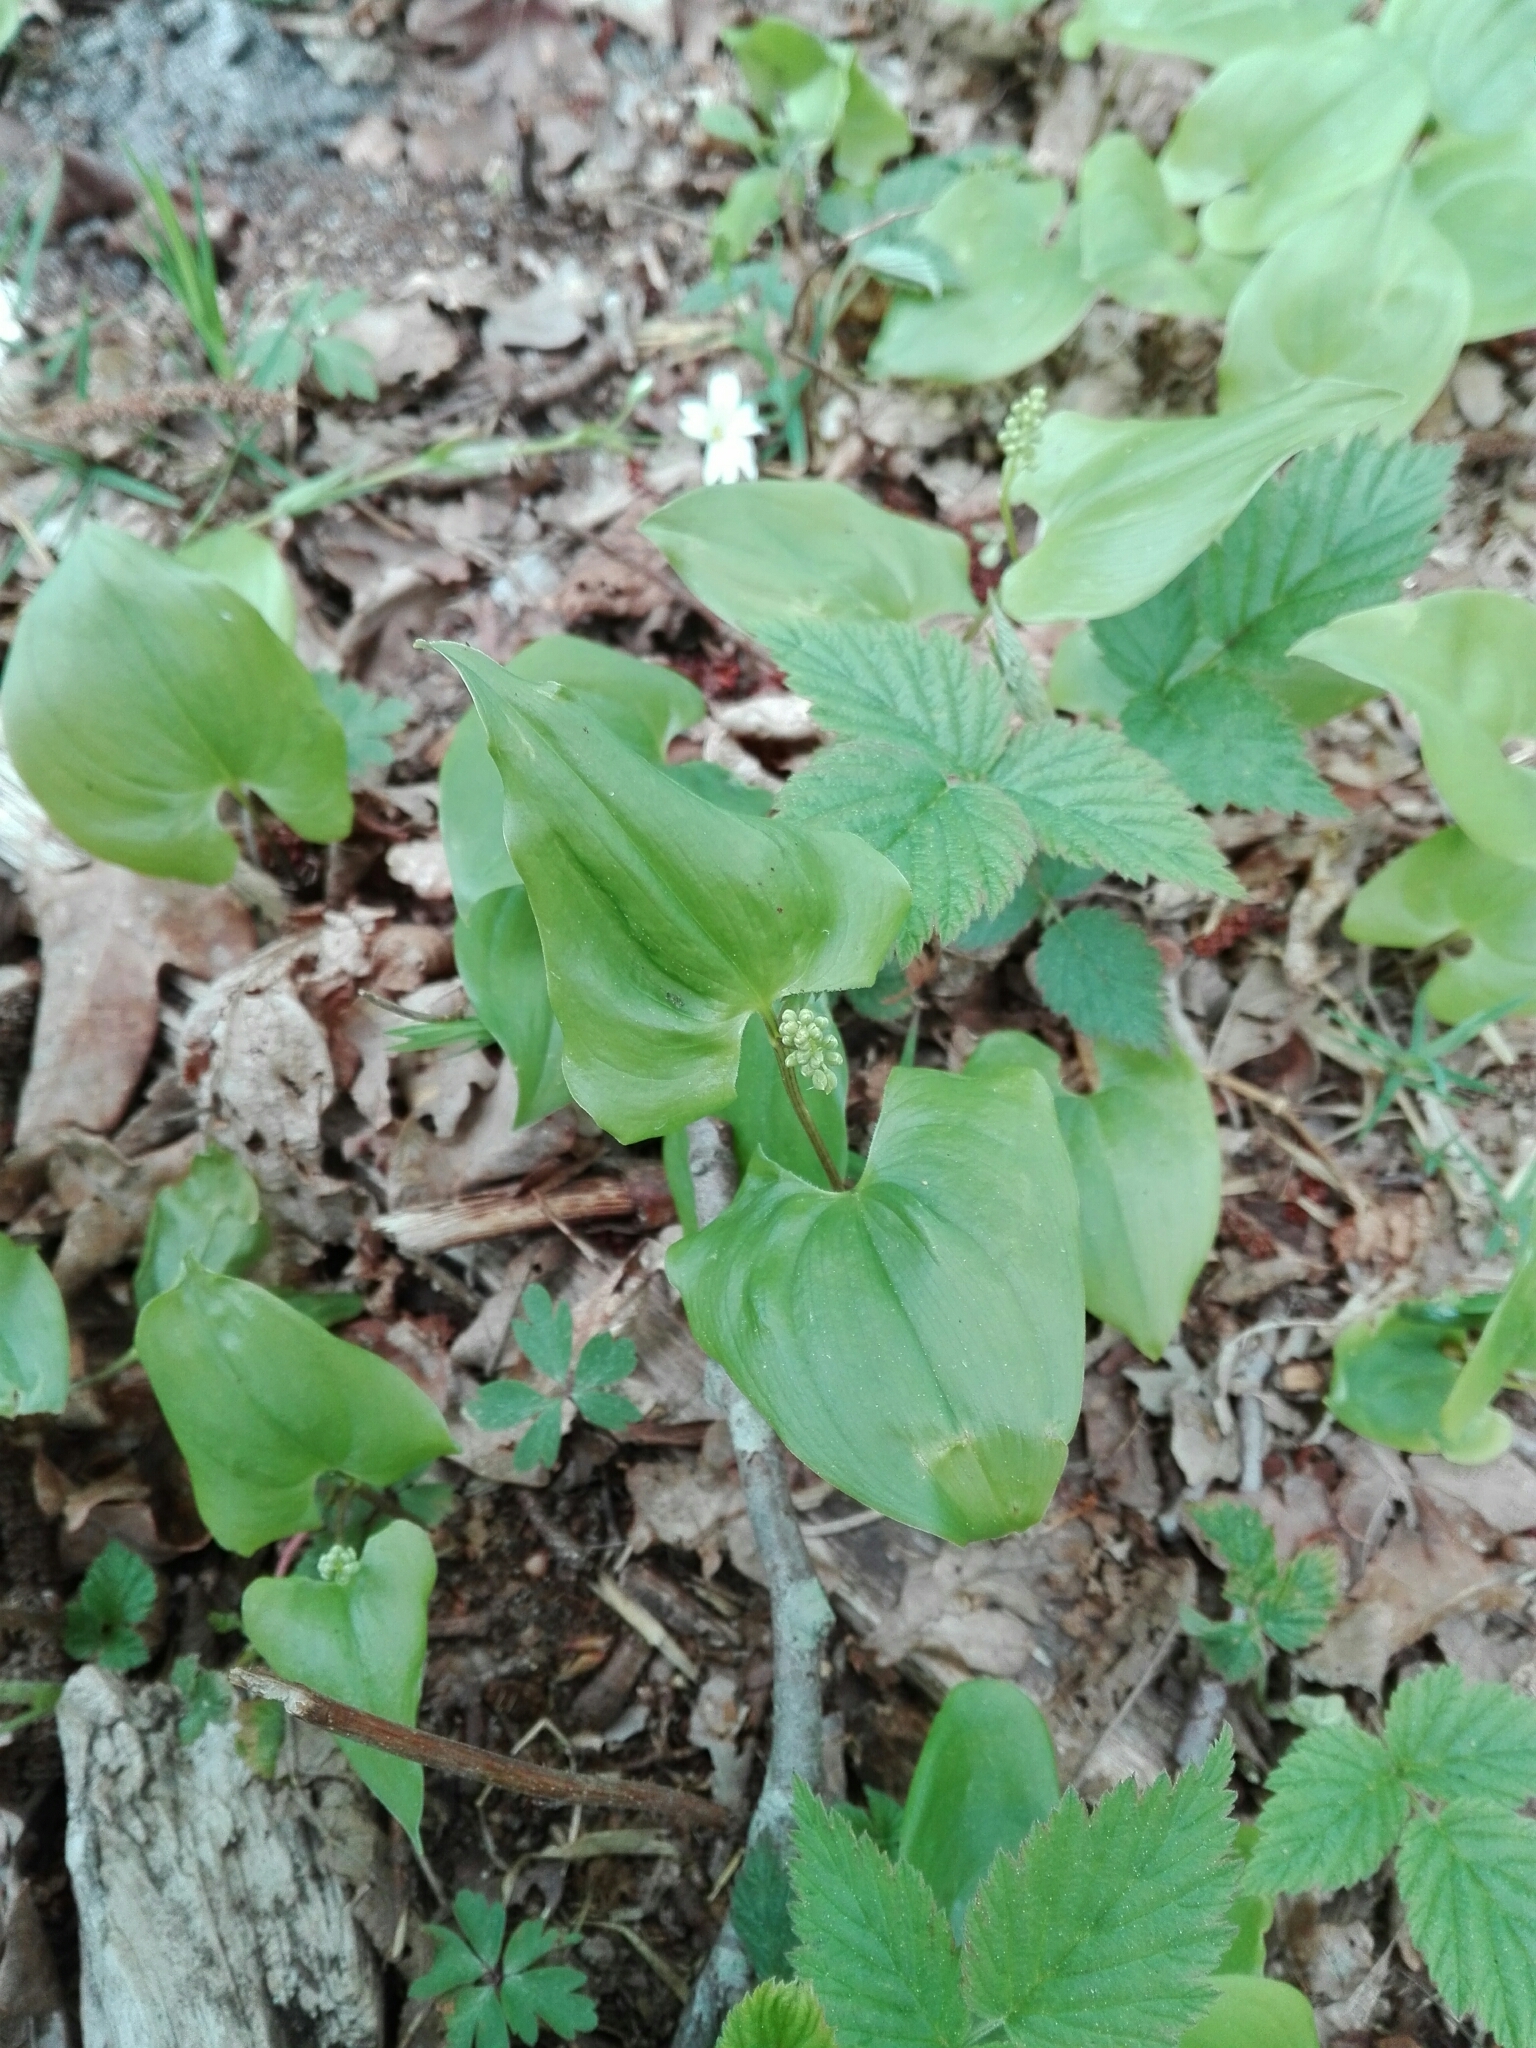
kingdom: Plantae
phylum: Tracheophyta
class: Liliopsida
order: Asparagales
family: Asparagaceae
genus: Maianthemum
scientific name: Maianthemum bifolium
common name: May lily
